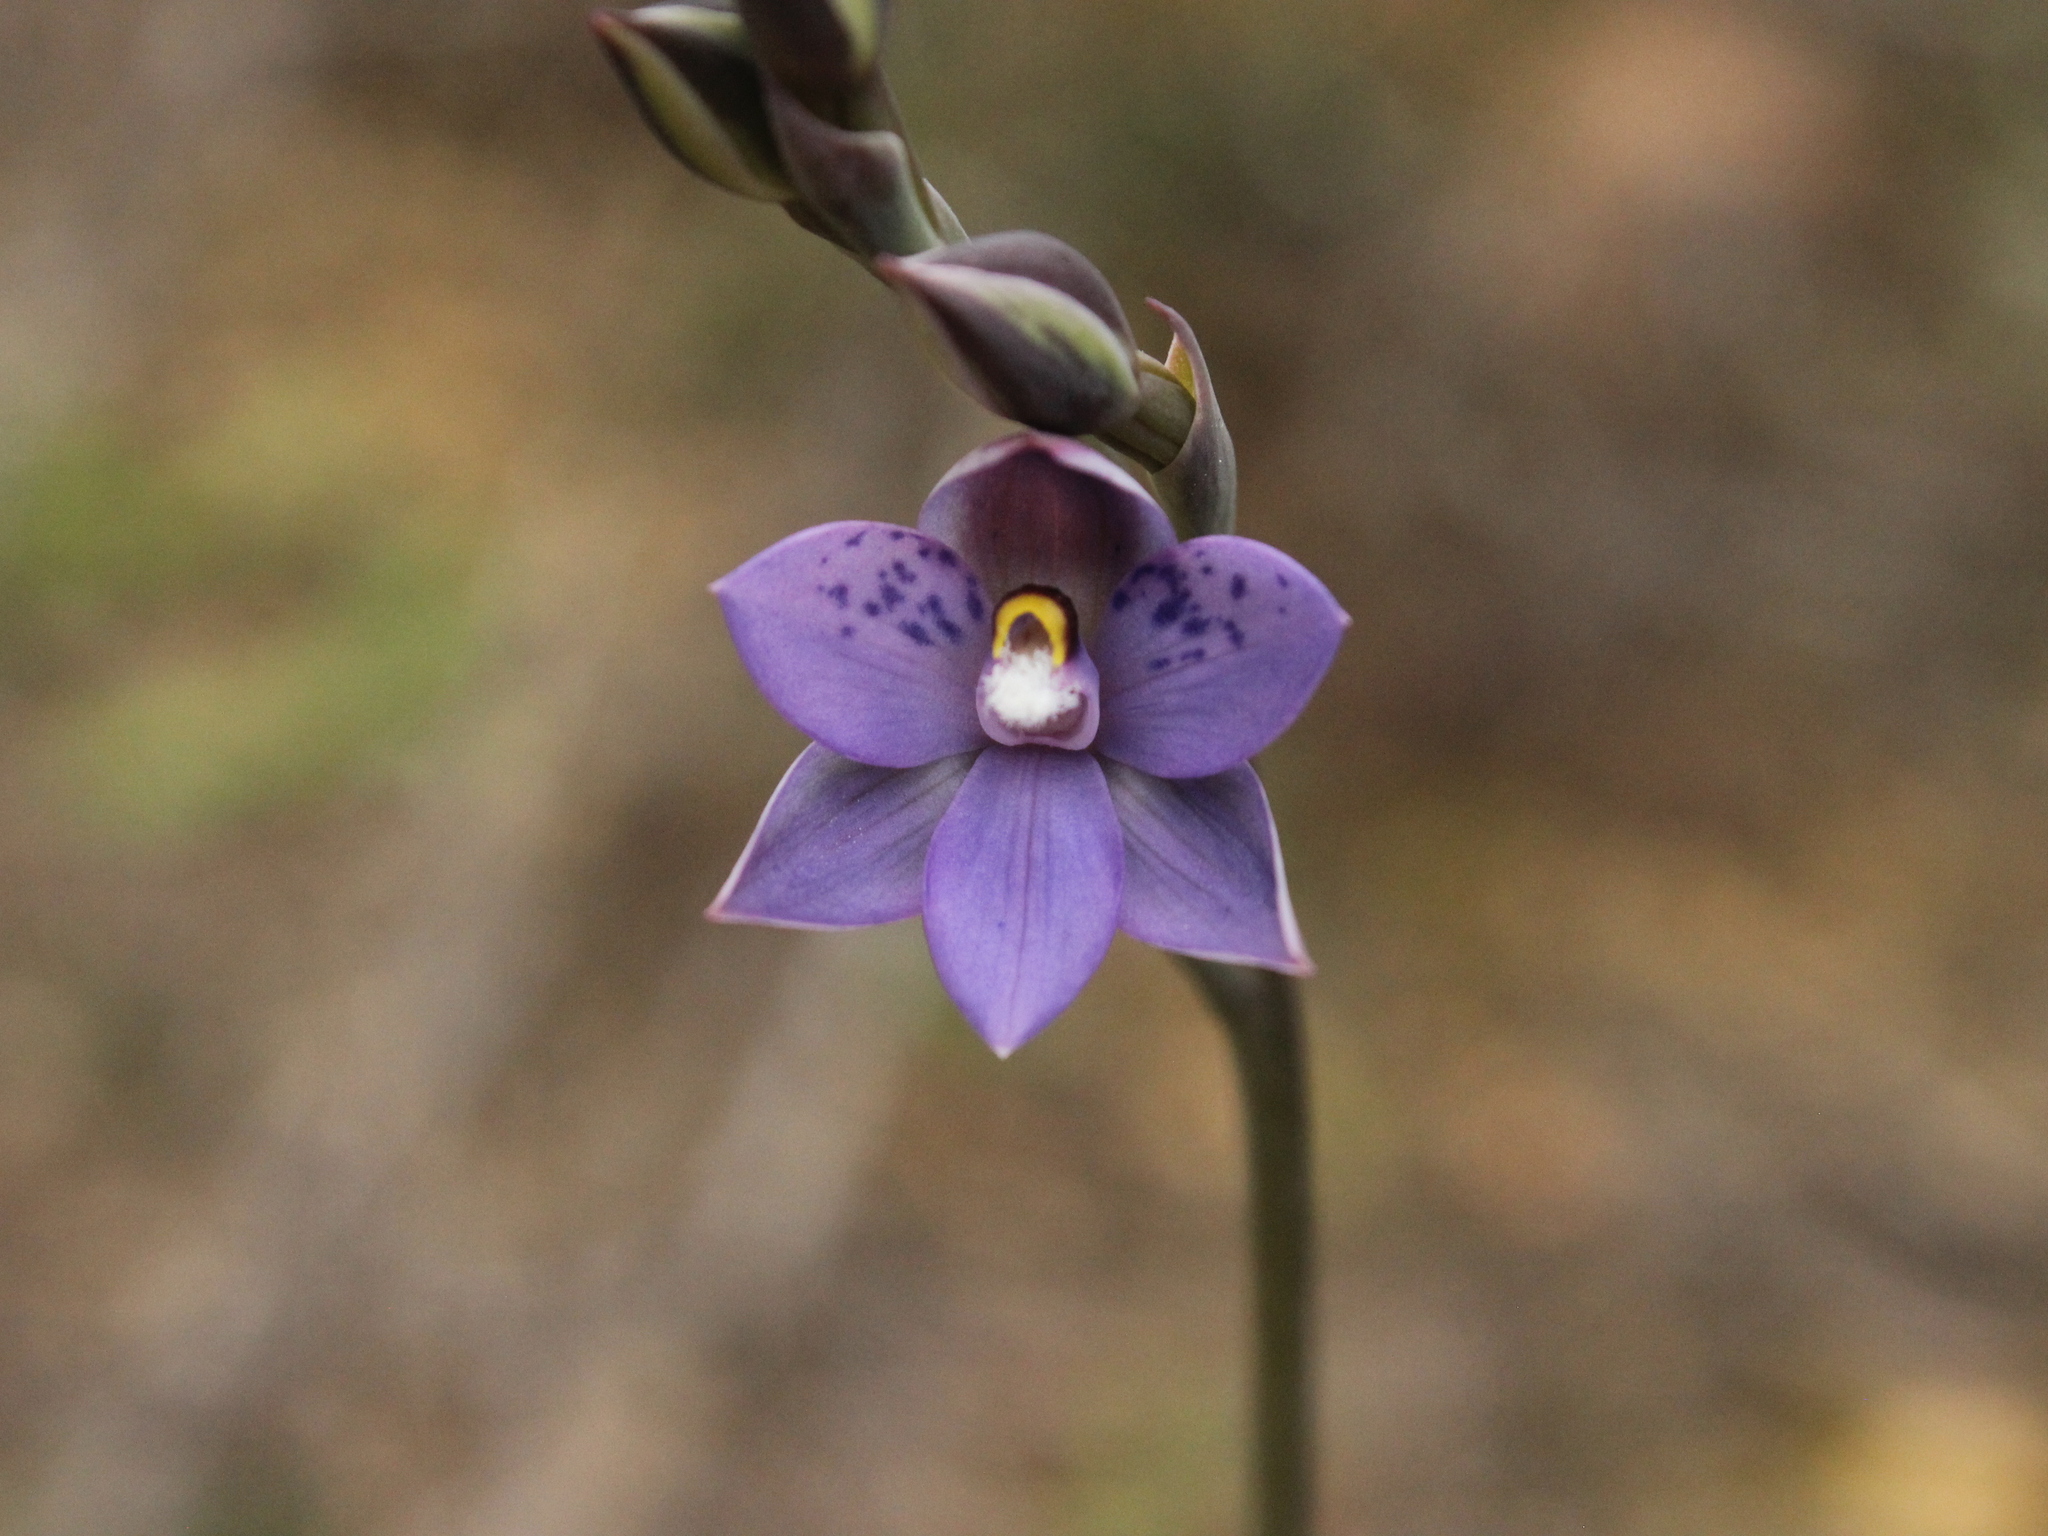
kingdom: Plantae
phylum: Tracheophyta
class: Liliopsida
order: Asparagales
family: Orchidaceae
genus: Thelymitra
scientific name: Thelymitra nervosa
